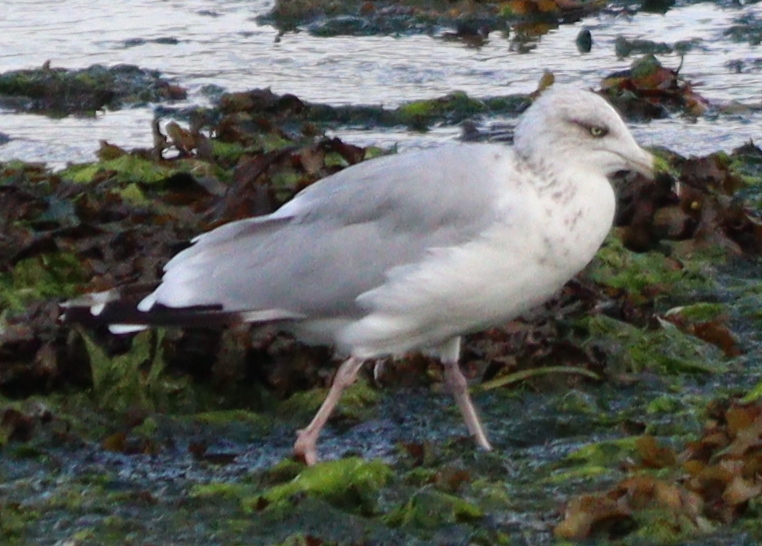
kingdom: Animalia
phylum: Chordata
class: Aves
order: Charadriiformes
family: Laridae
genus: Larus
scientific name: Larus argentatus
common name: Herring gull
